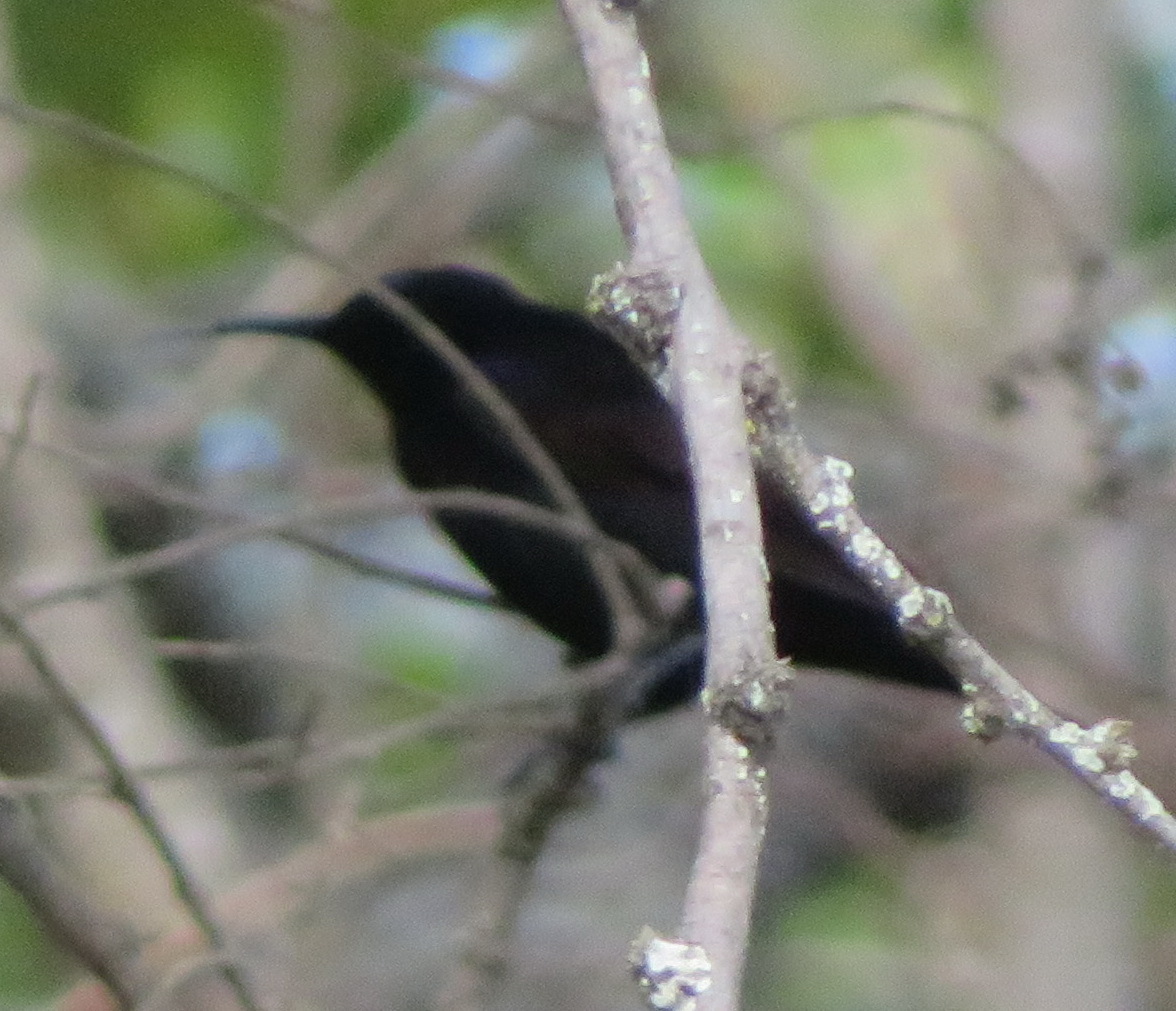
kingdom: Animalia
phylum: Chordata
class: Aves
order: Passeriformes
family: Nectariniidae
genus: Chalcomitra
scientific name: Chalcomitra amethystina
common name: Amethyst sunbird
